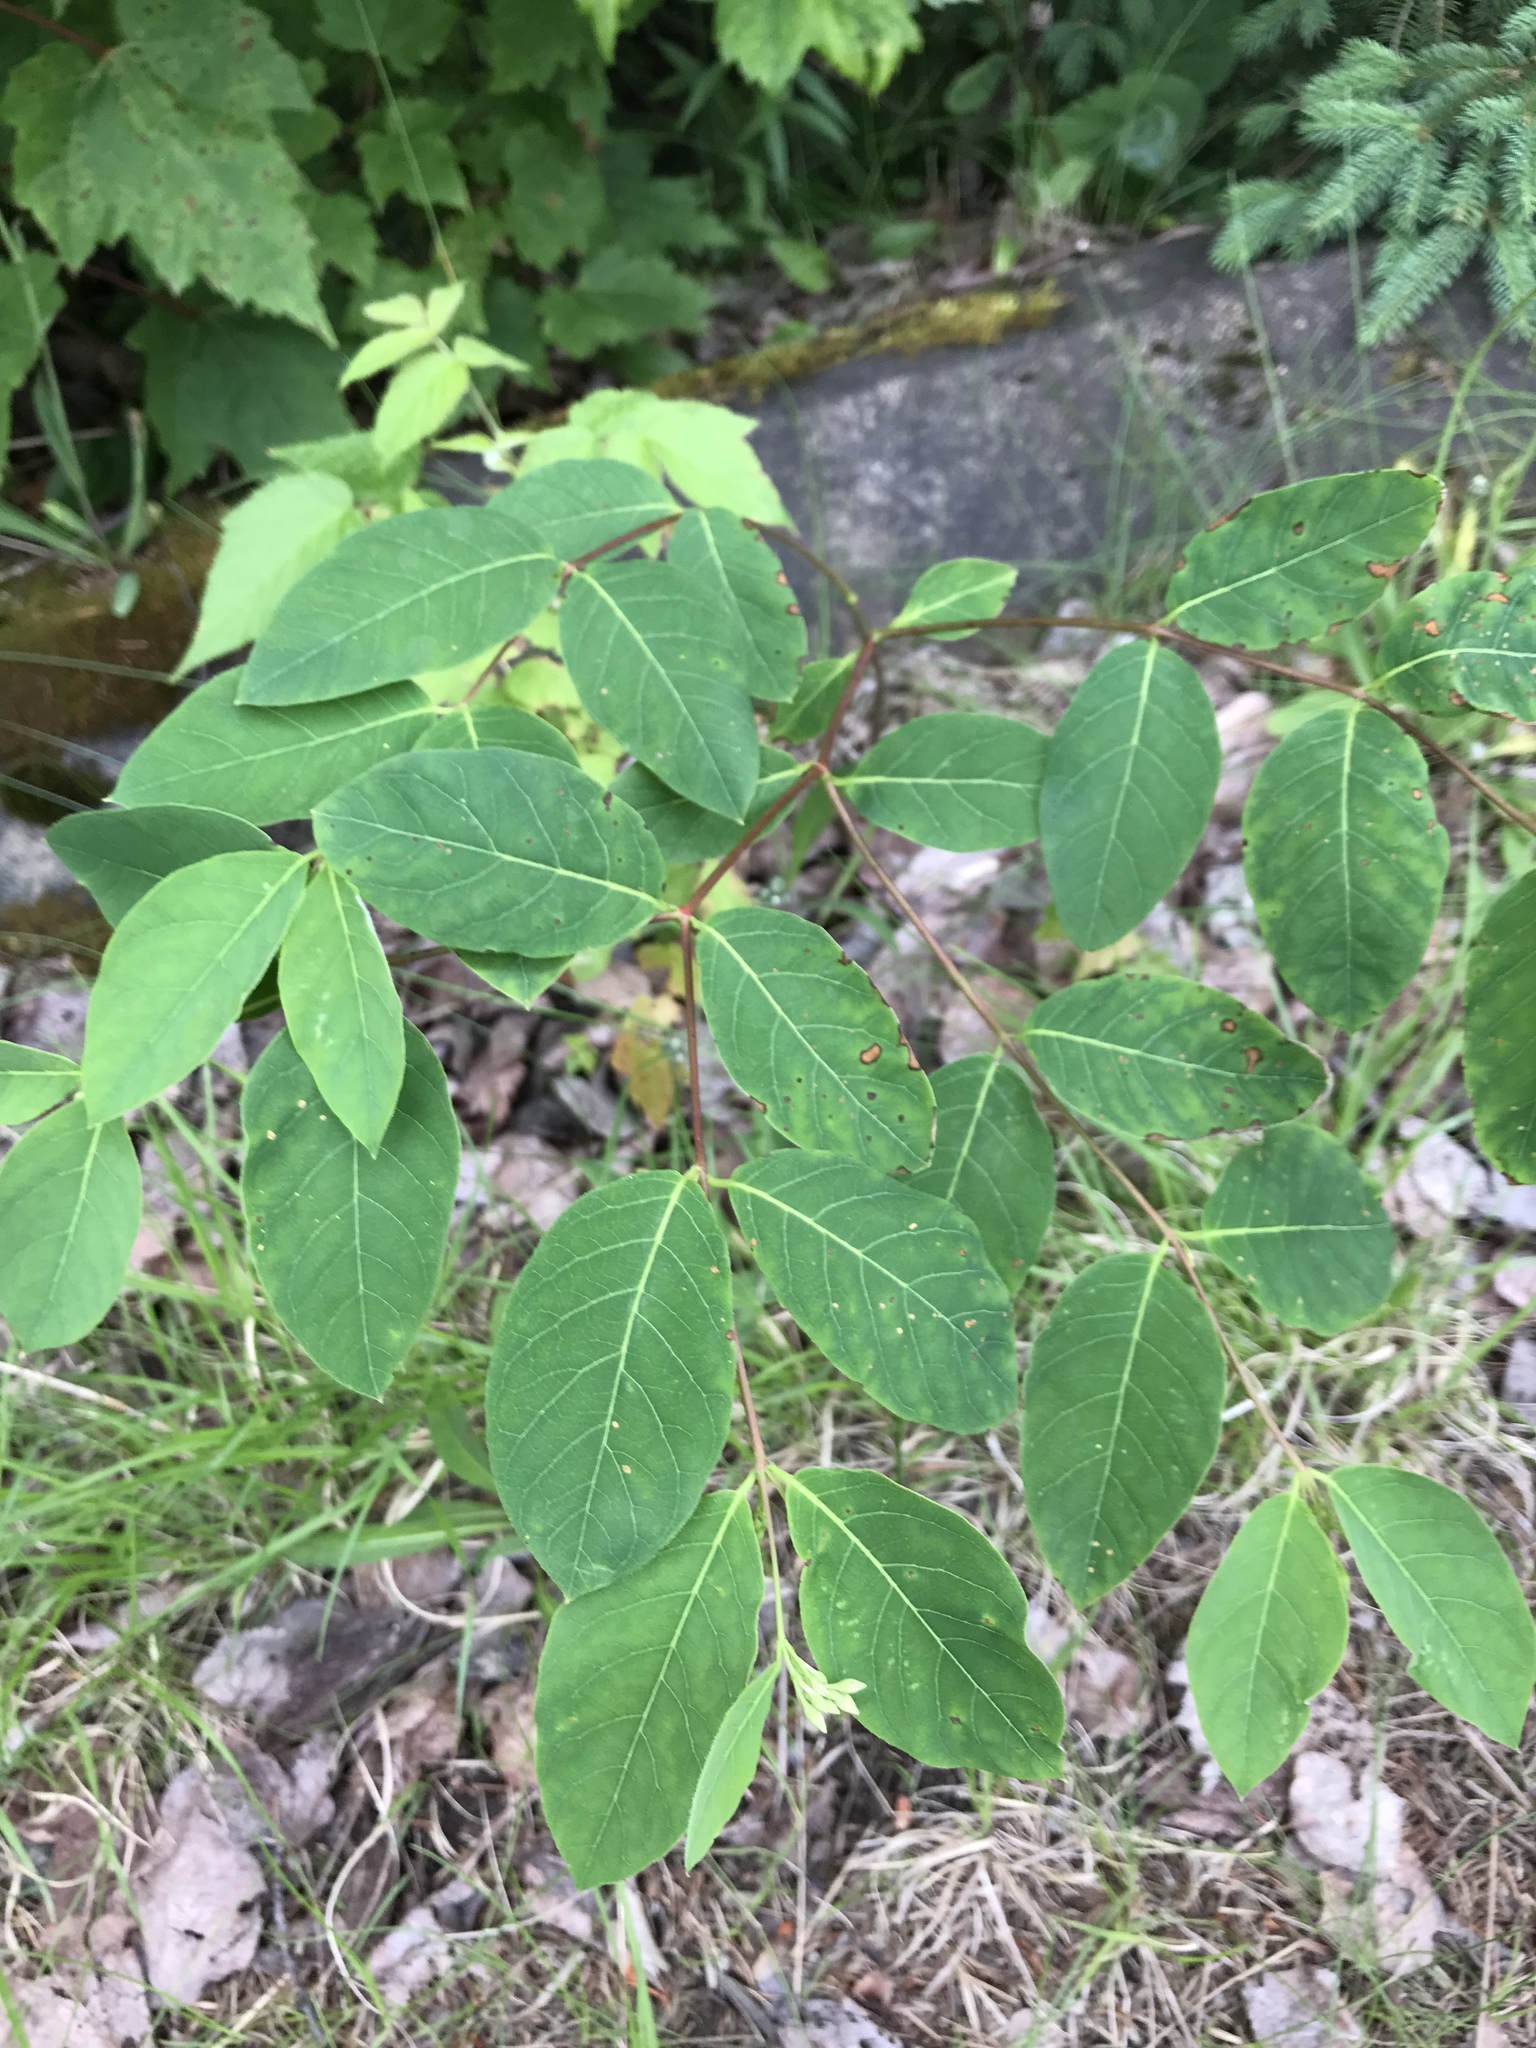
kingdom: Plantae
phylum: Tracheophyta
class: Magnoliopsida
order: Gentianales
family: Apocynaceae
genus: Apocynum
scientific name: Apocynum androsaemifolium
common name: Spreading dogbane
